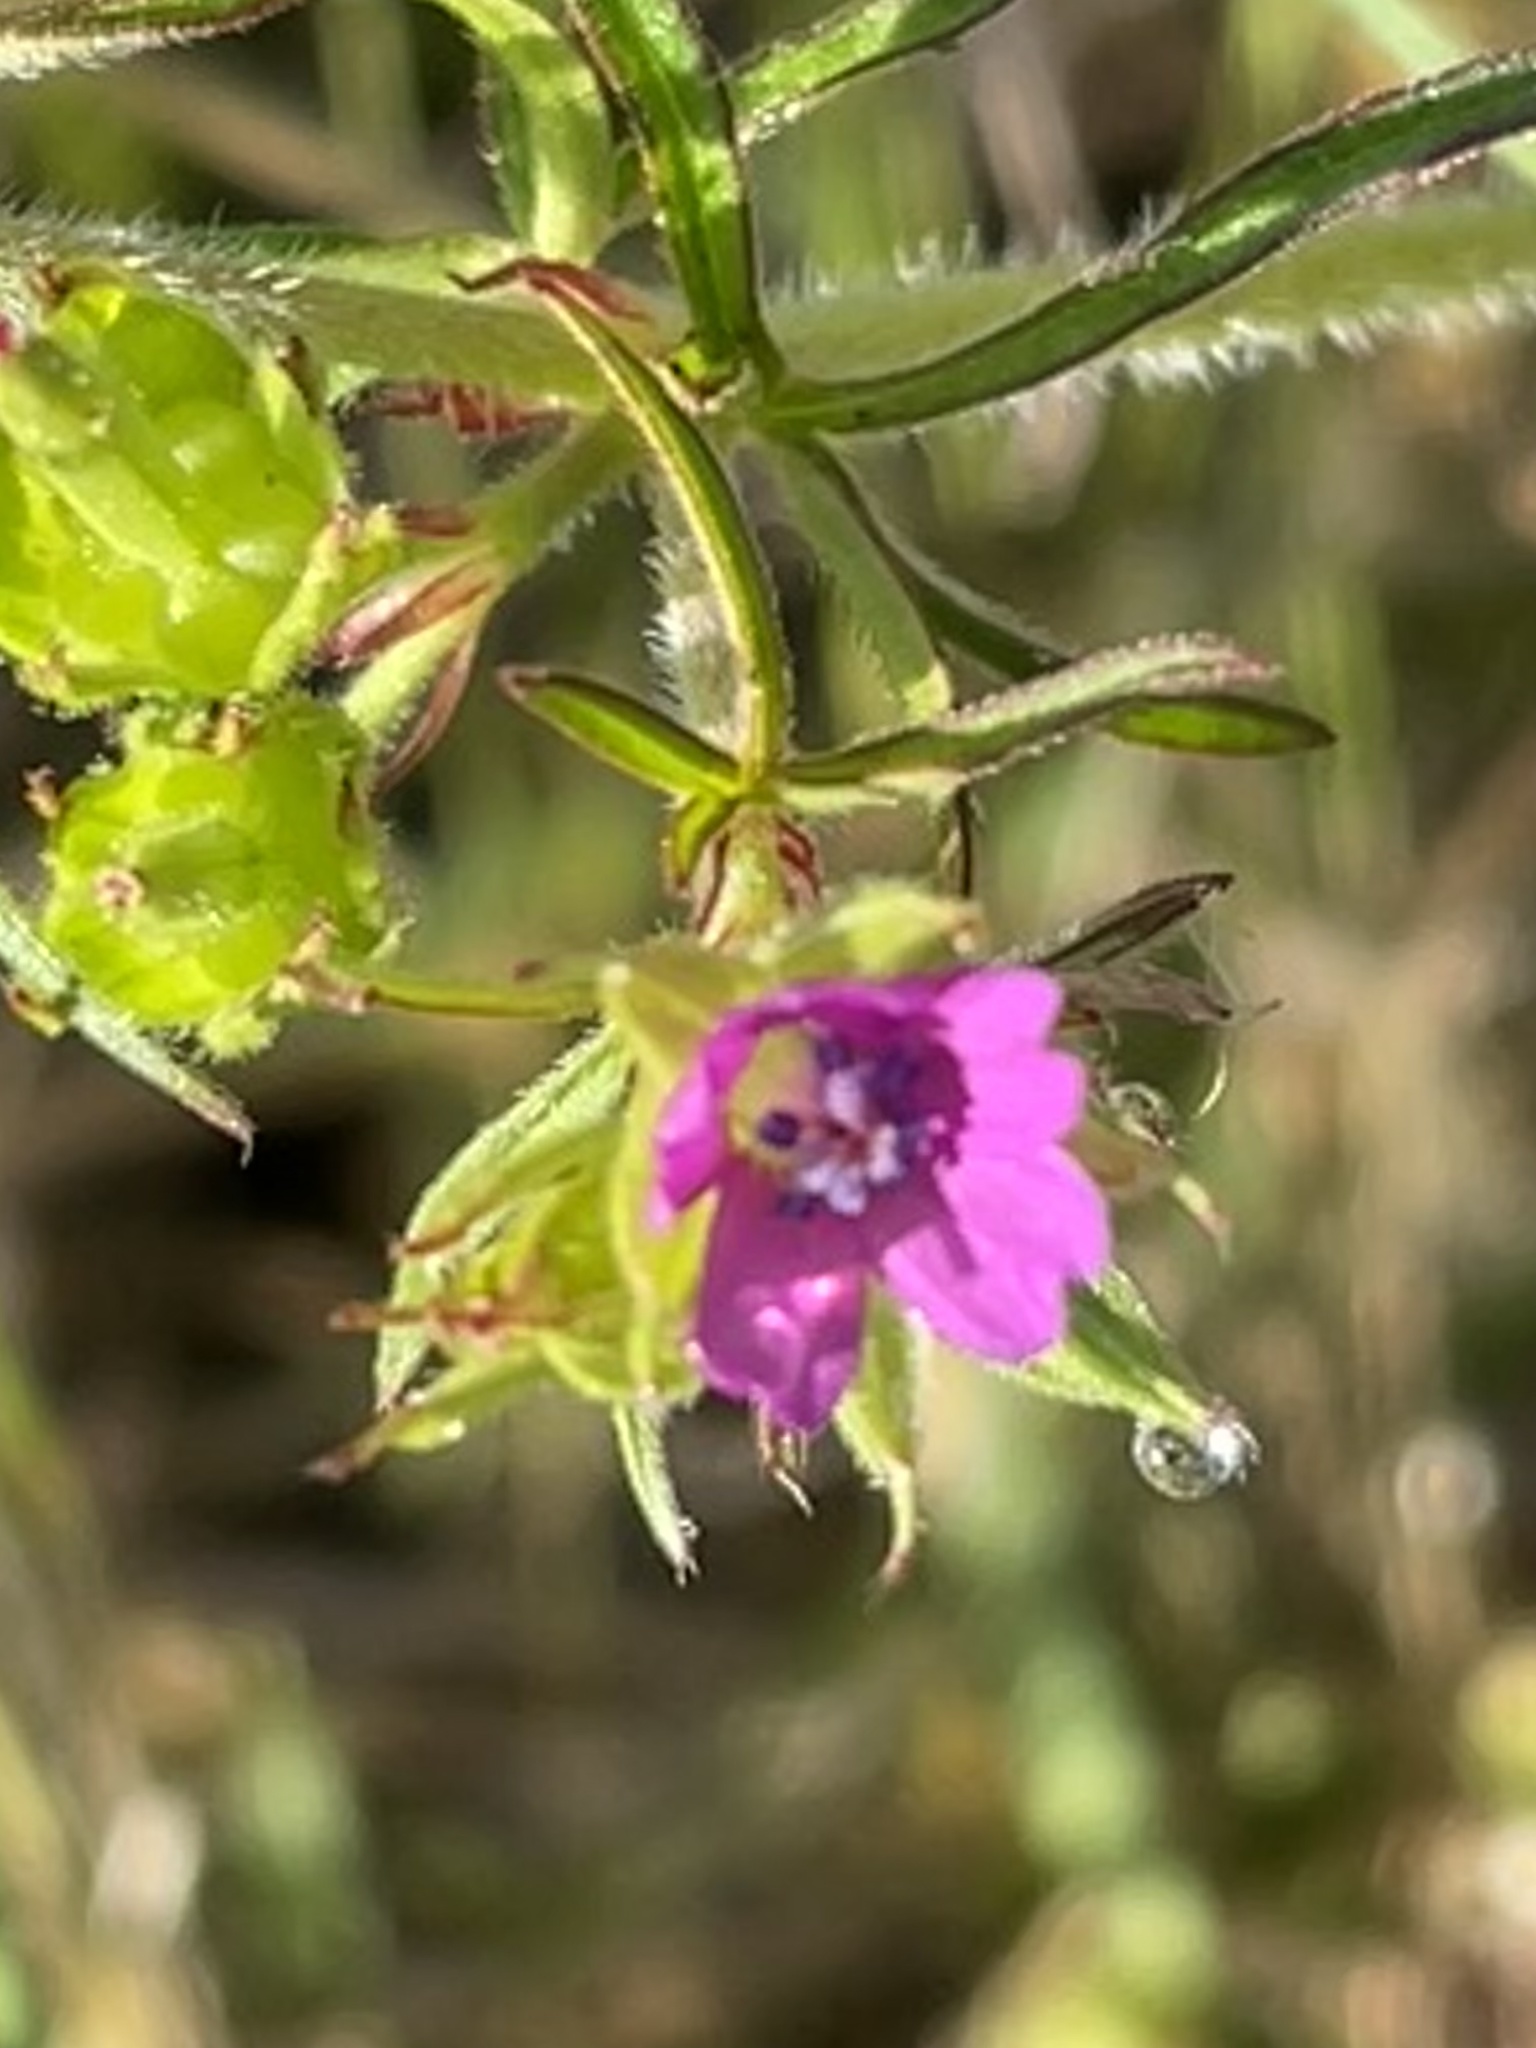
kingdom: Plantae
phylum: Tracheophyta
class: Magnoliopsida
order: Geraniales
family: Geraniaceae
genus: Geranium
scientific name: Geranium dissectum
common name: Cut-leaved crane's-bill
